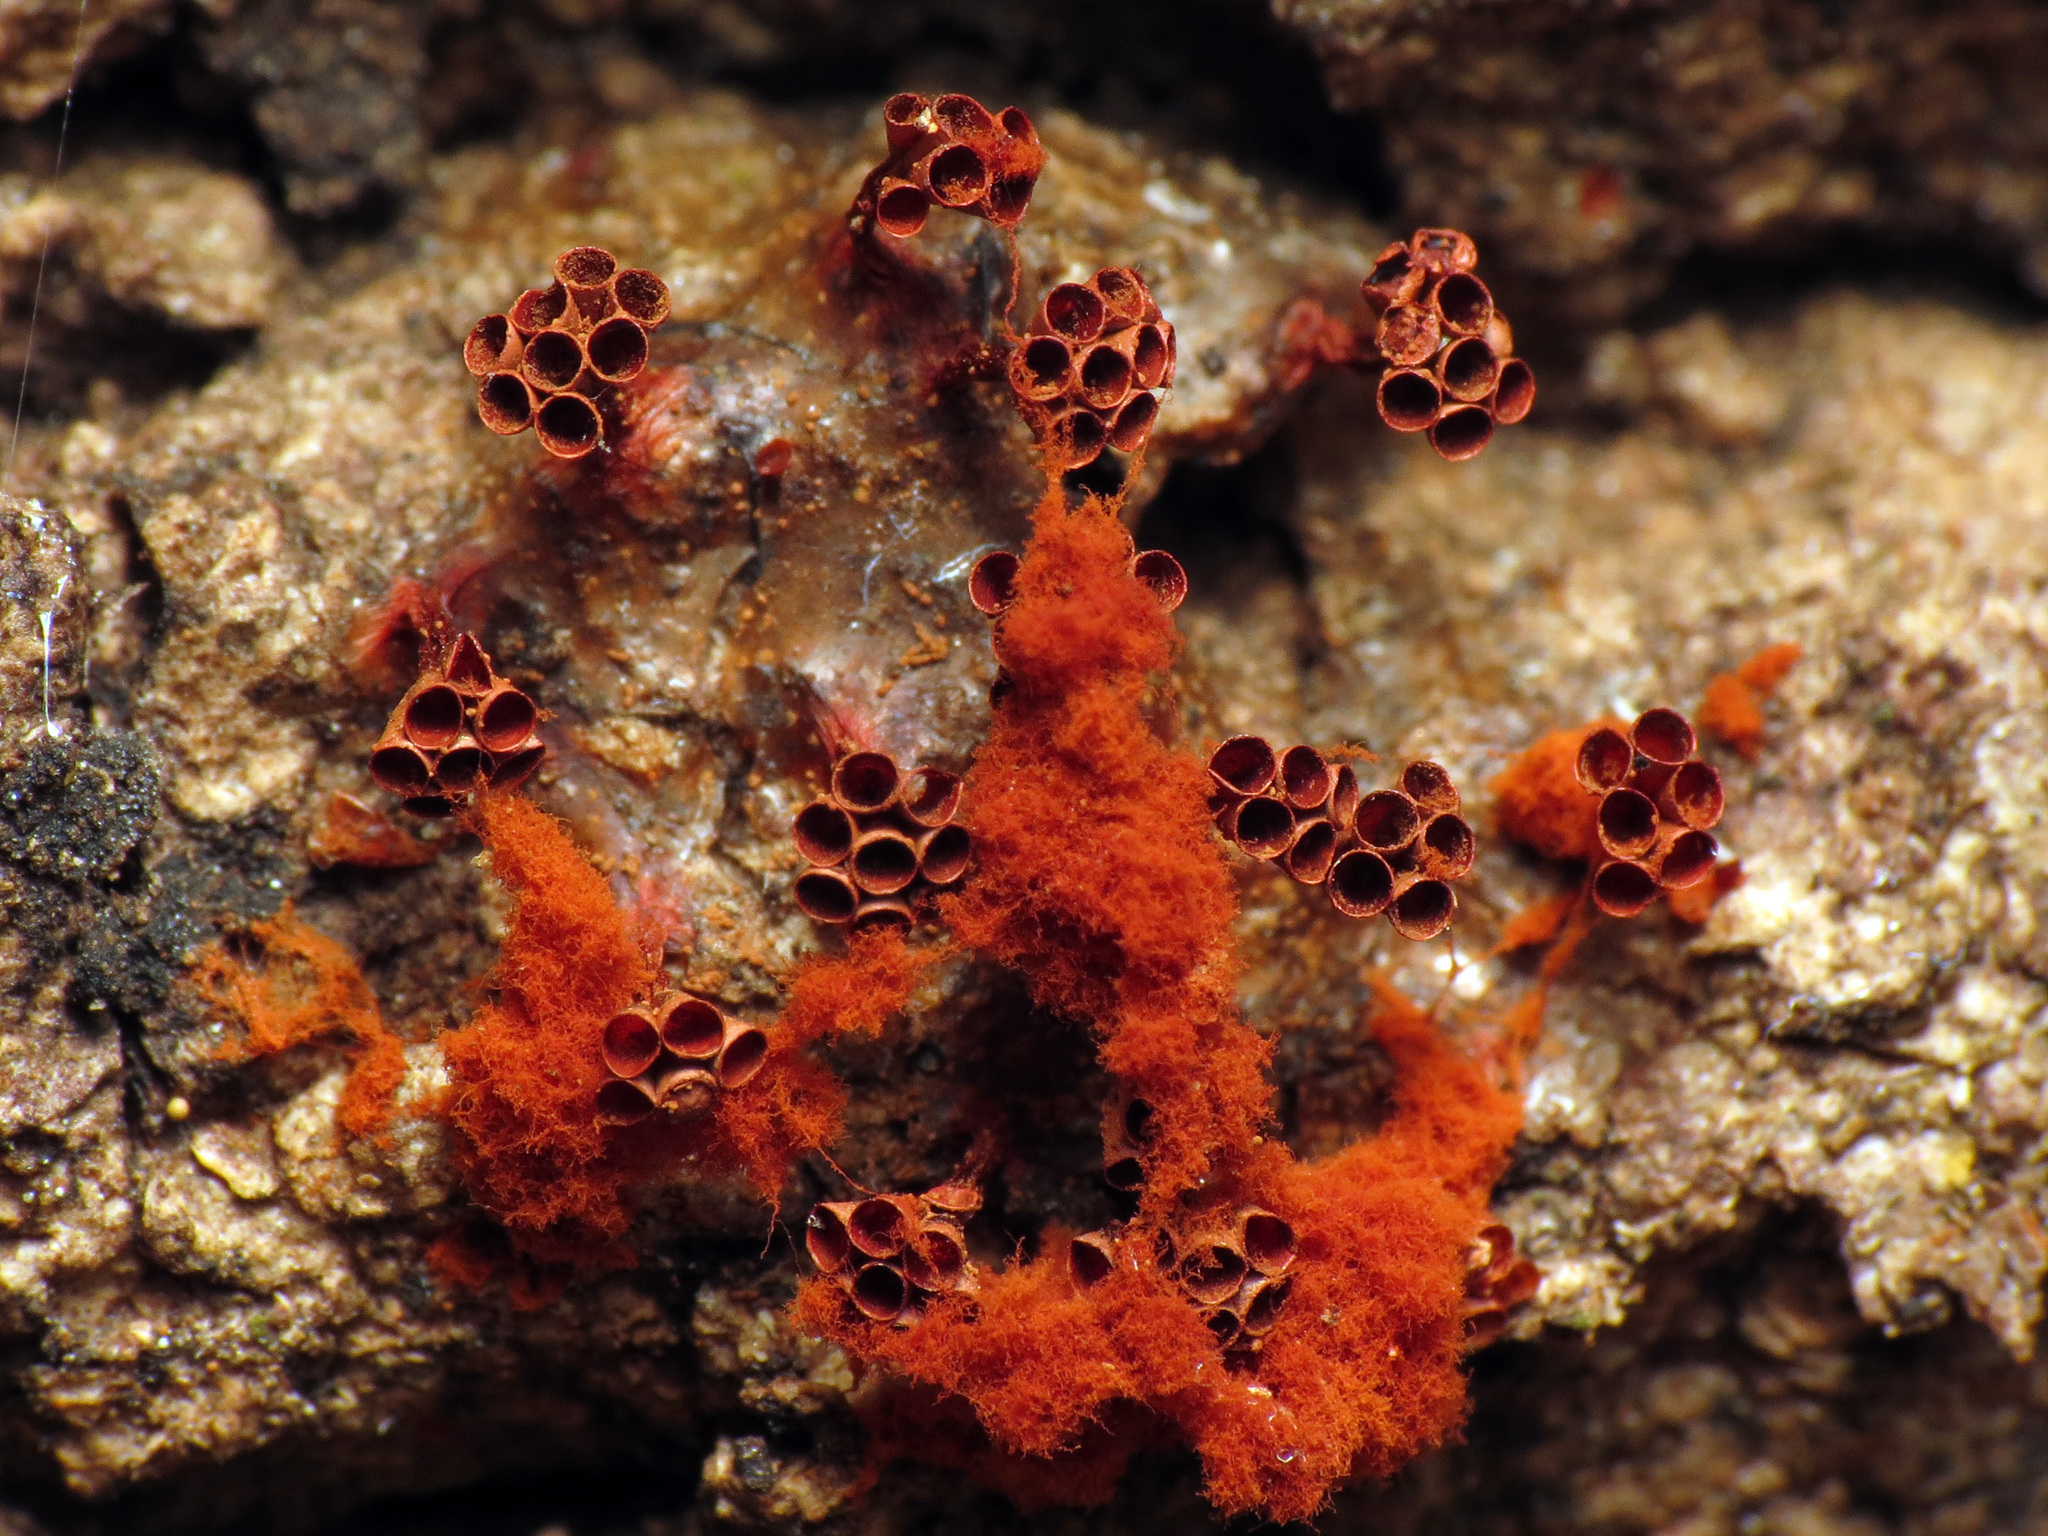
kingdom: Protozoa
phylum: Mycetozoa
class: Myxomycetes
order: Trichiales
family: Trichiaceae
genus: Metatrichia
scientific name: Metatrichia vesparia
